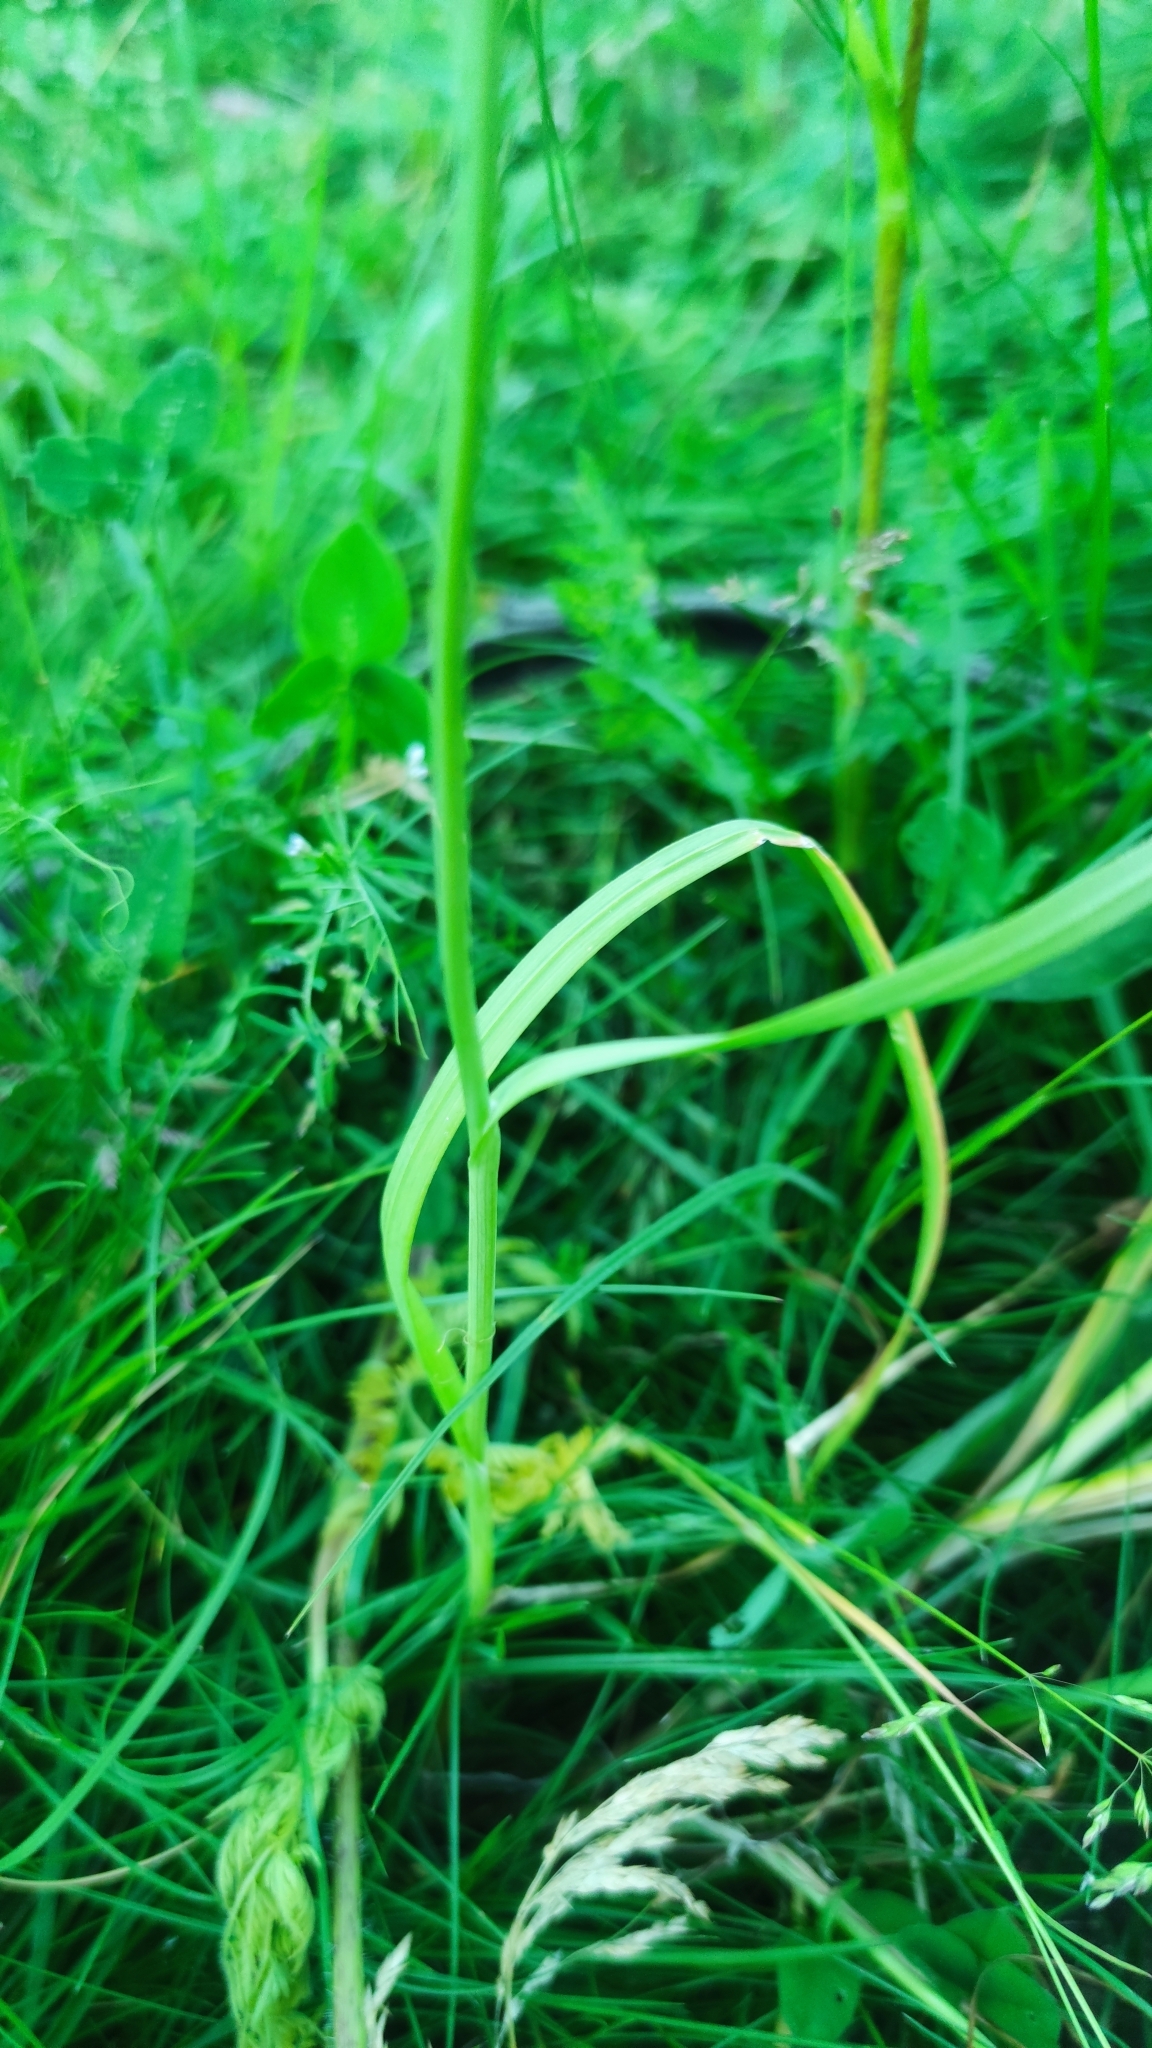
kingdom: Plantae
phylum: Tracheophyta
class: Liliopsida
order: Asparagales
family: Amaryllidaceae
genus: Allium
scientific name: Allium rotundum
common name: Sand leek
